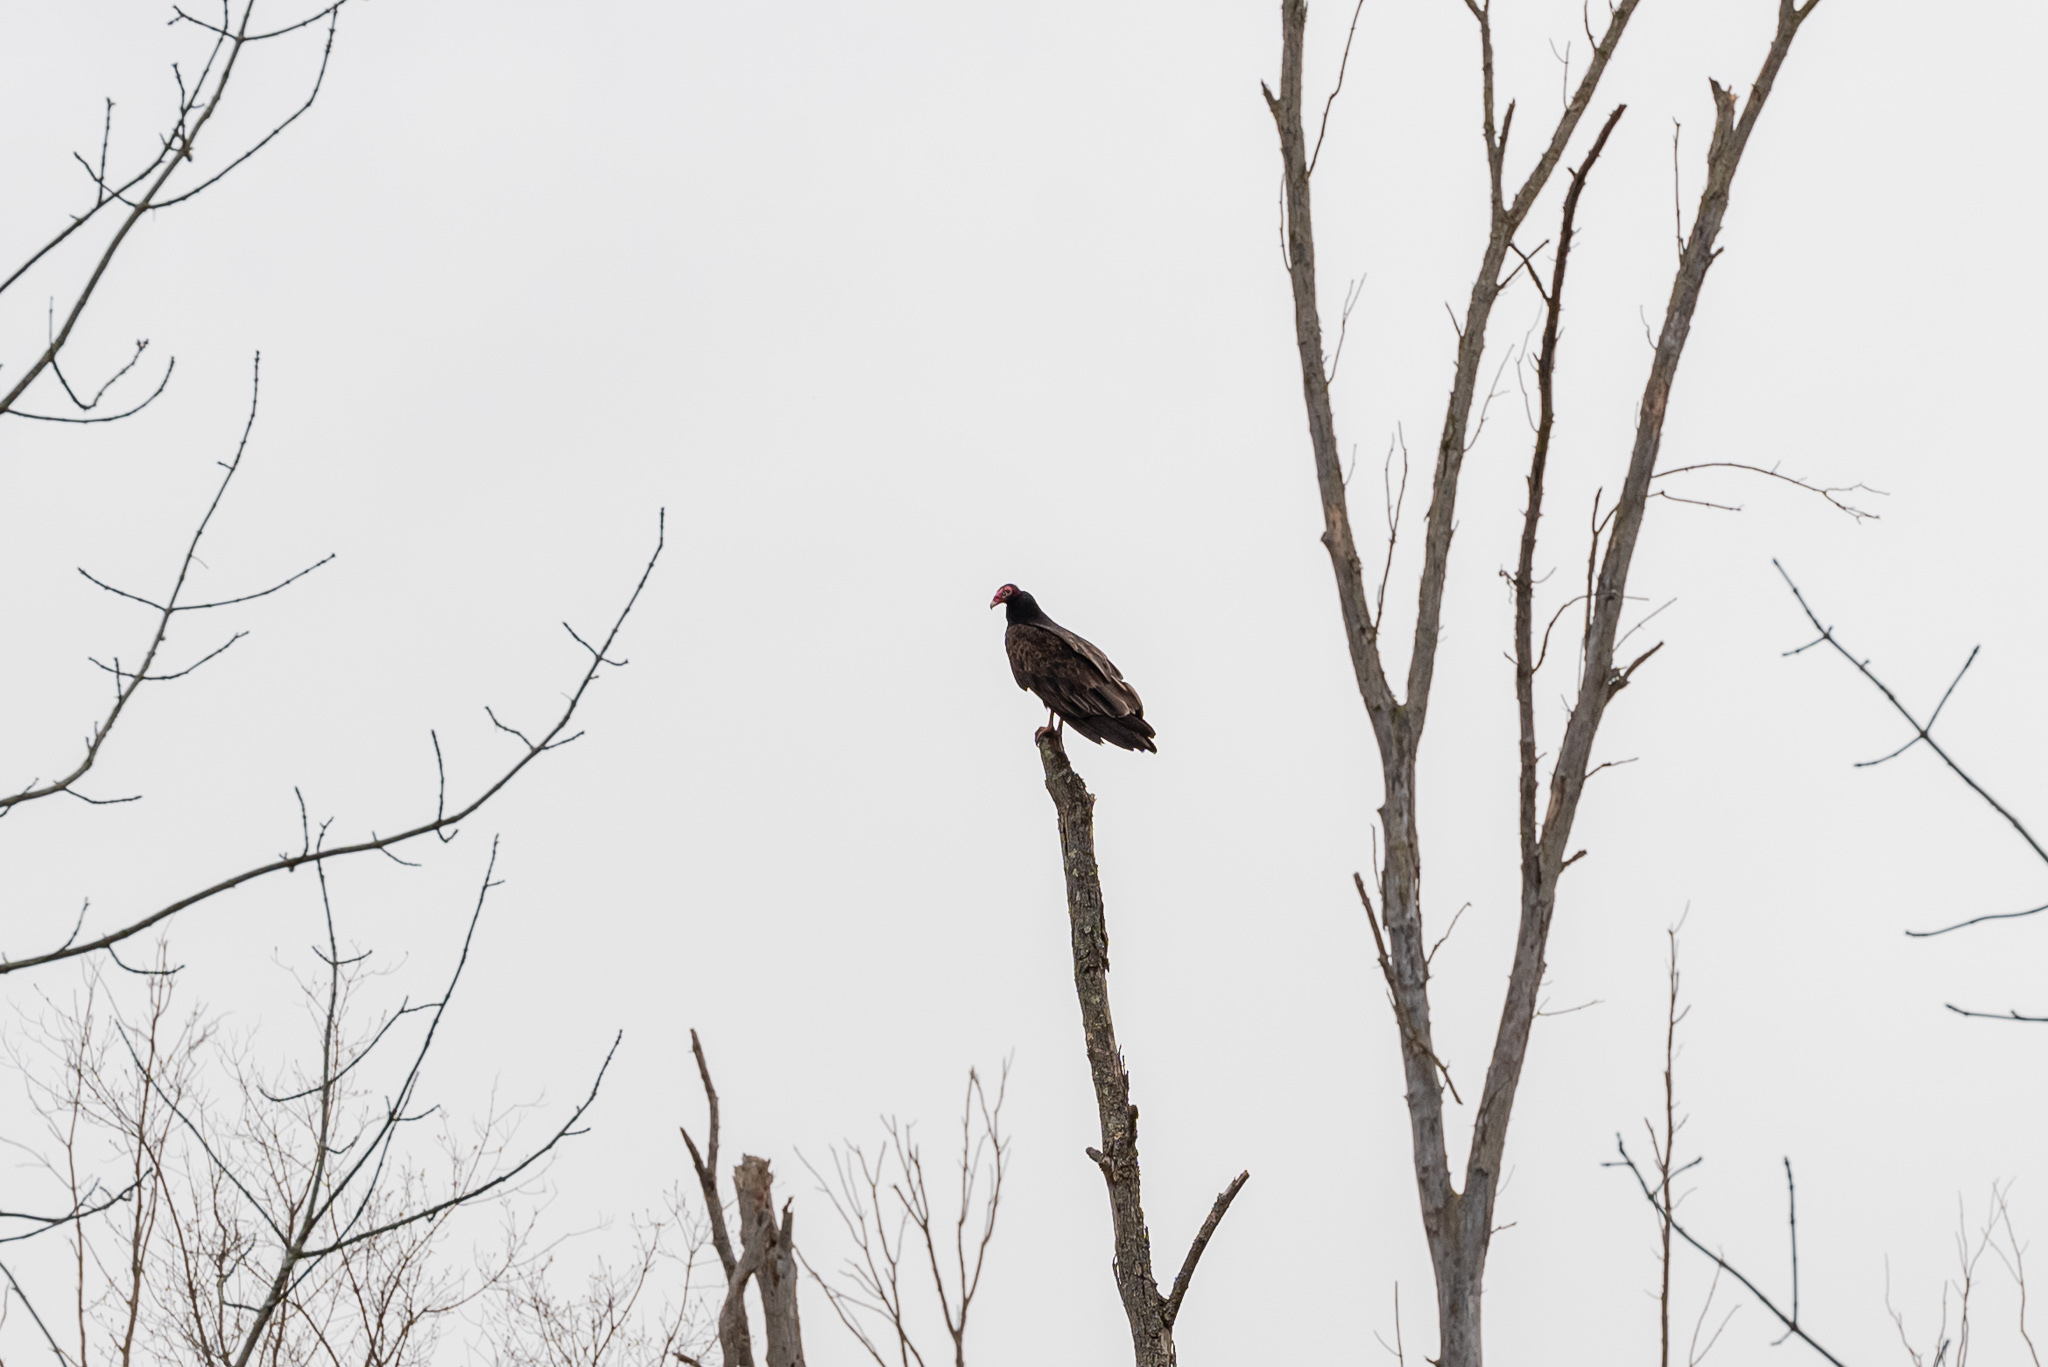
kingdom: Animalia
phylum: Chordata
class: Aves
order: Accipitriformes
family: Cathartidae
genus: Cathartes
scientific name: Cathartes aura
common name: Turkey vulture
